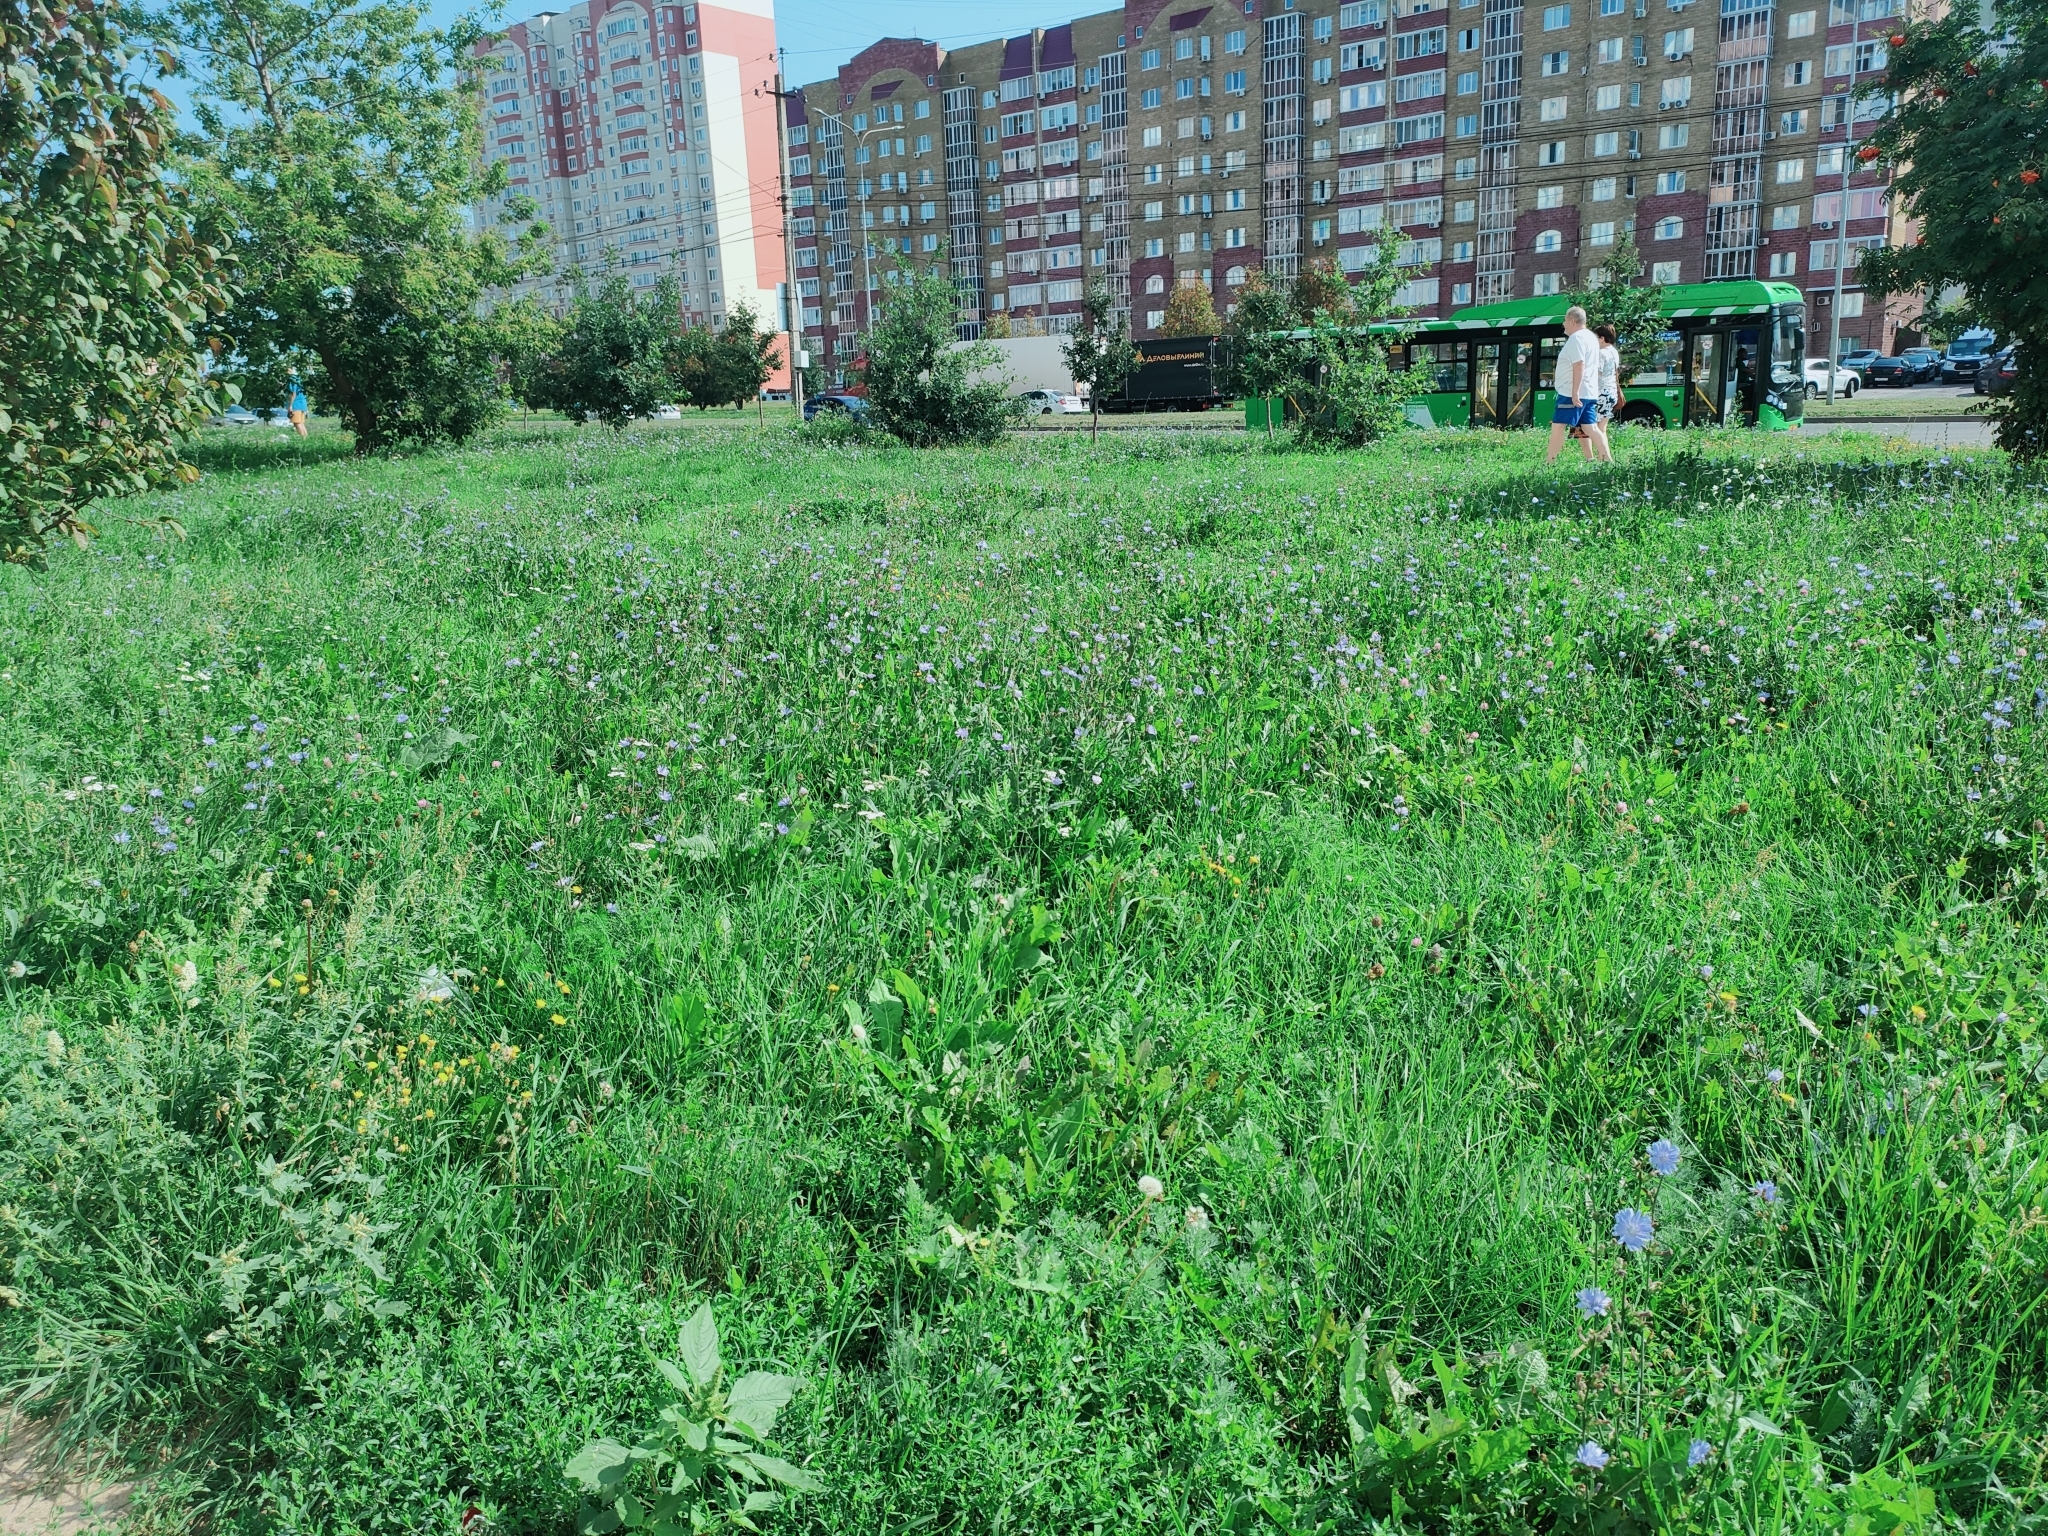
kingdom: Plantae
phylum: Tracheophyta
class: Magnoliopsida
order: Asterales
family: Asteraceae
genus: Cichorium
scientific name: Cichorium intybus
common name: Chicory
